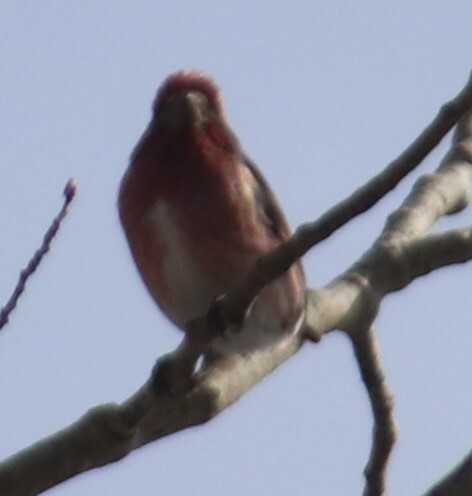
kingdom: Animalia
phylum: Chordata
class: Aves
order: Passeriformes
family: Fringillidae
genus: Haemorhous
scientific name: Haemorhous purpureus
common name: Purple finch
